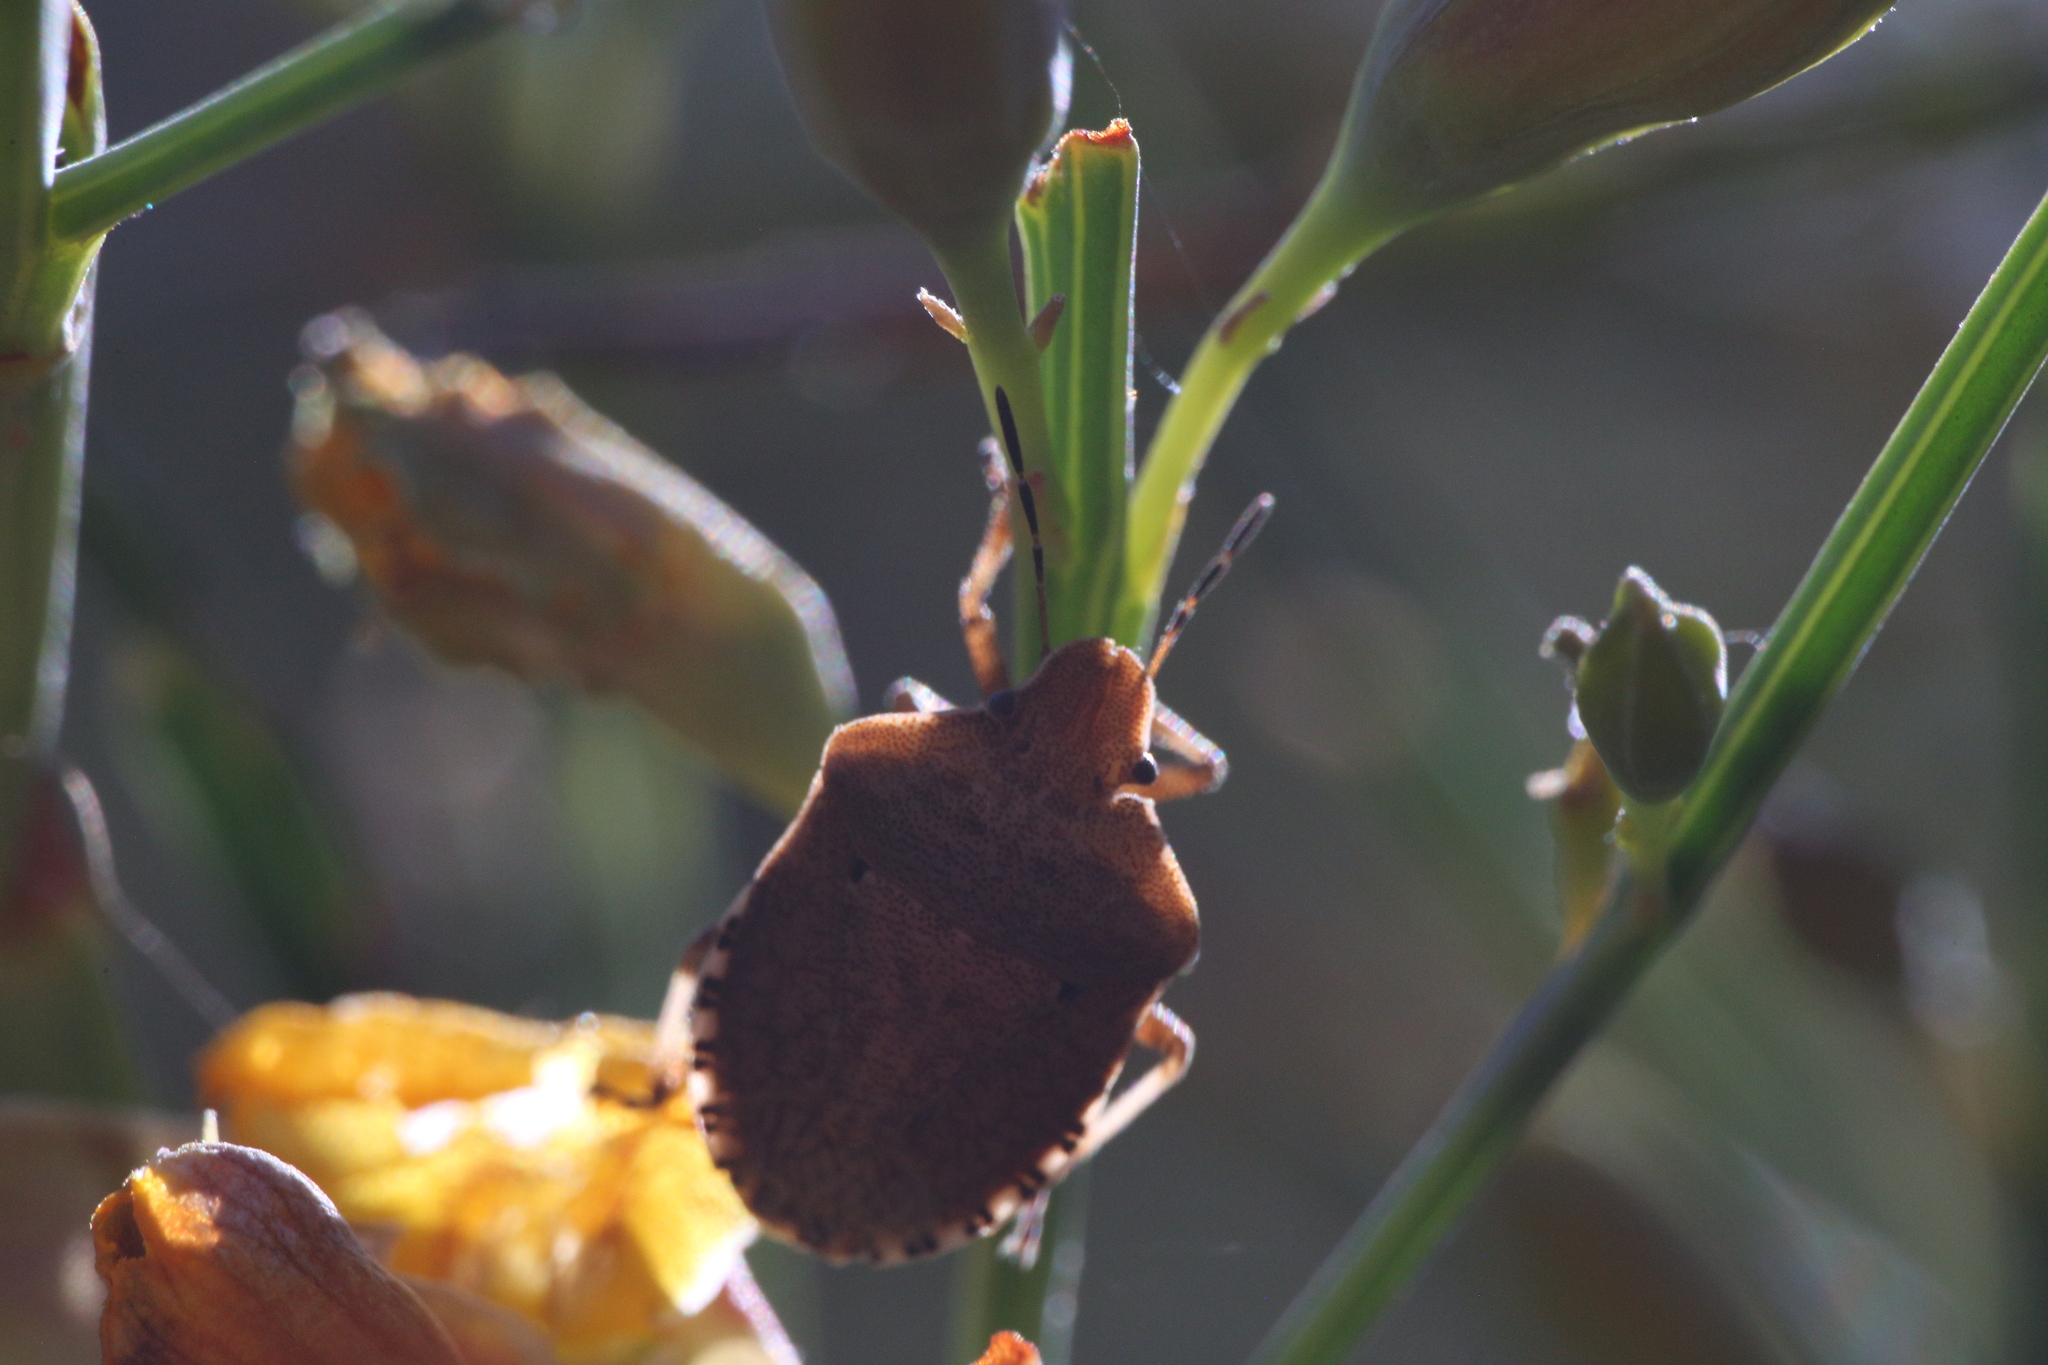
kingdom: Animalia
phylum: Arthropoda
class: Insecta
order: Hemiptera
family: Pentatomidae
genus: Dictyotus
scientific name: Dictyotus caenosus
